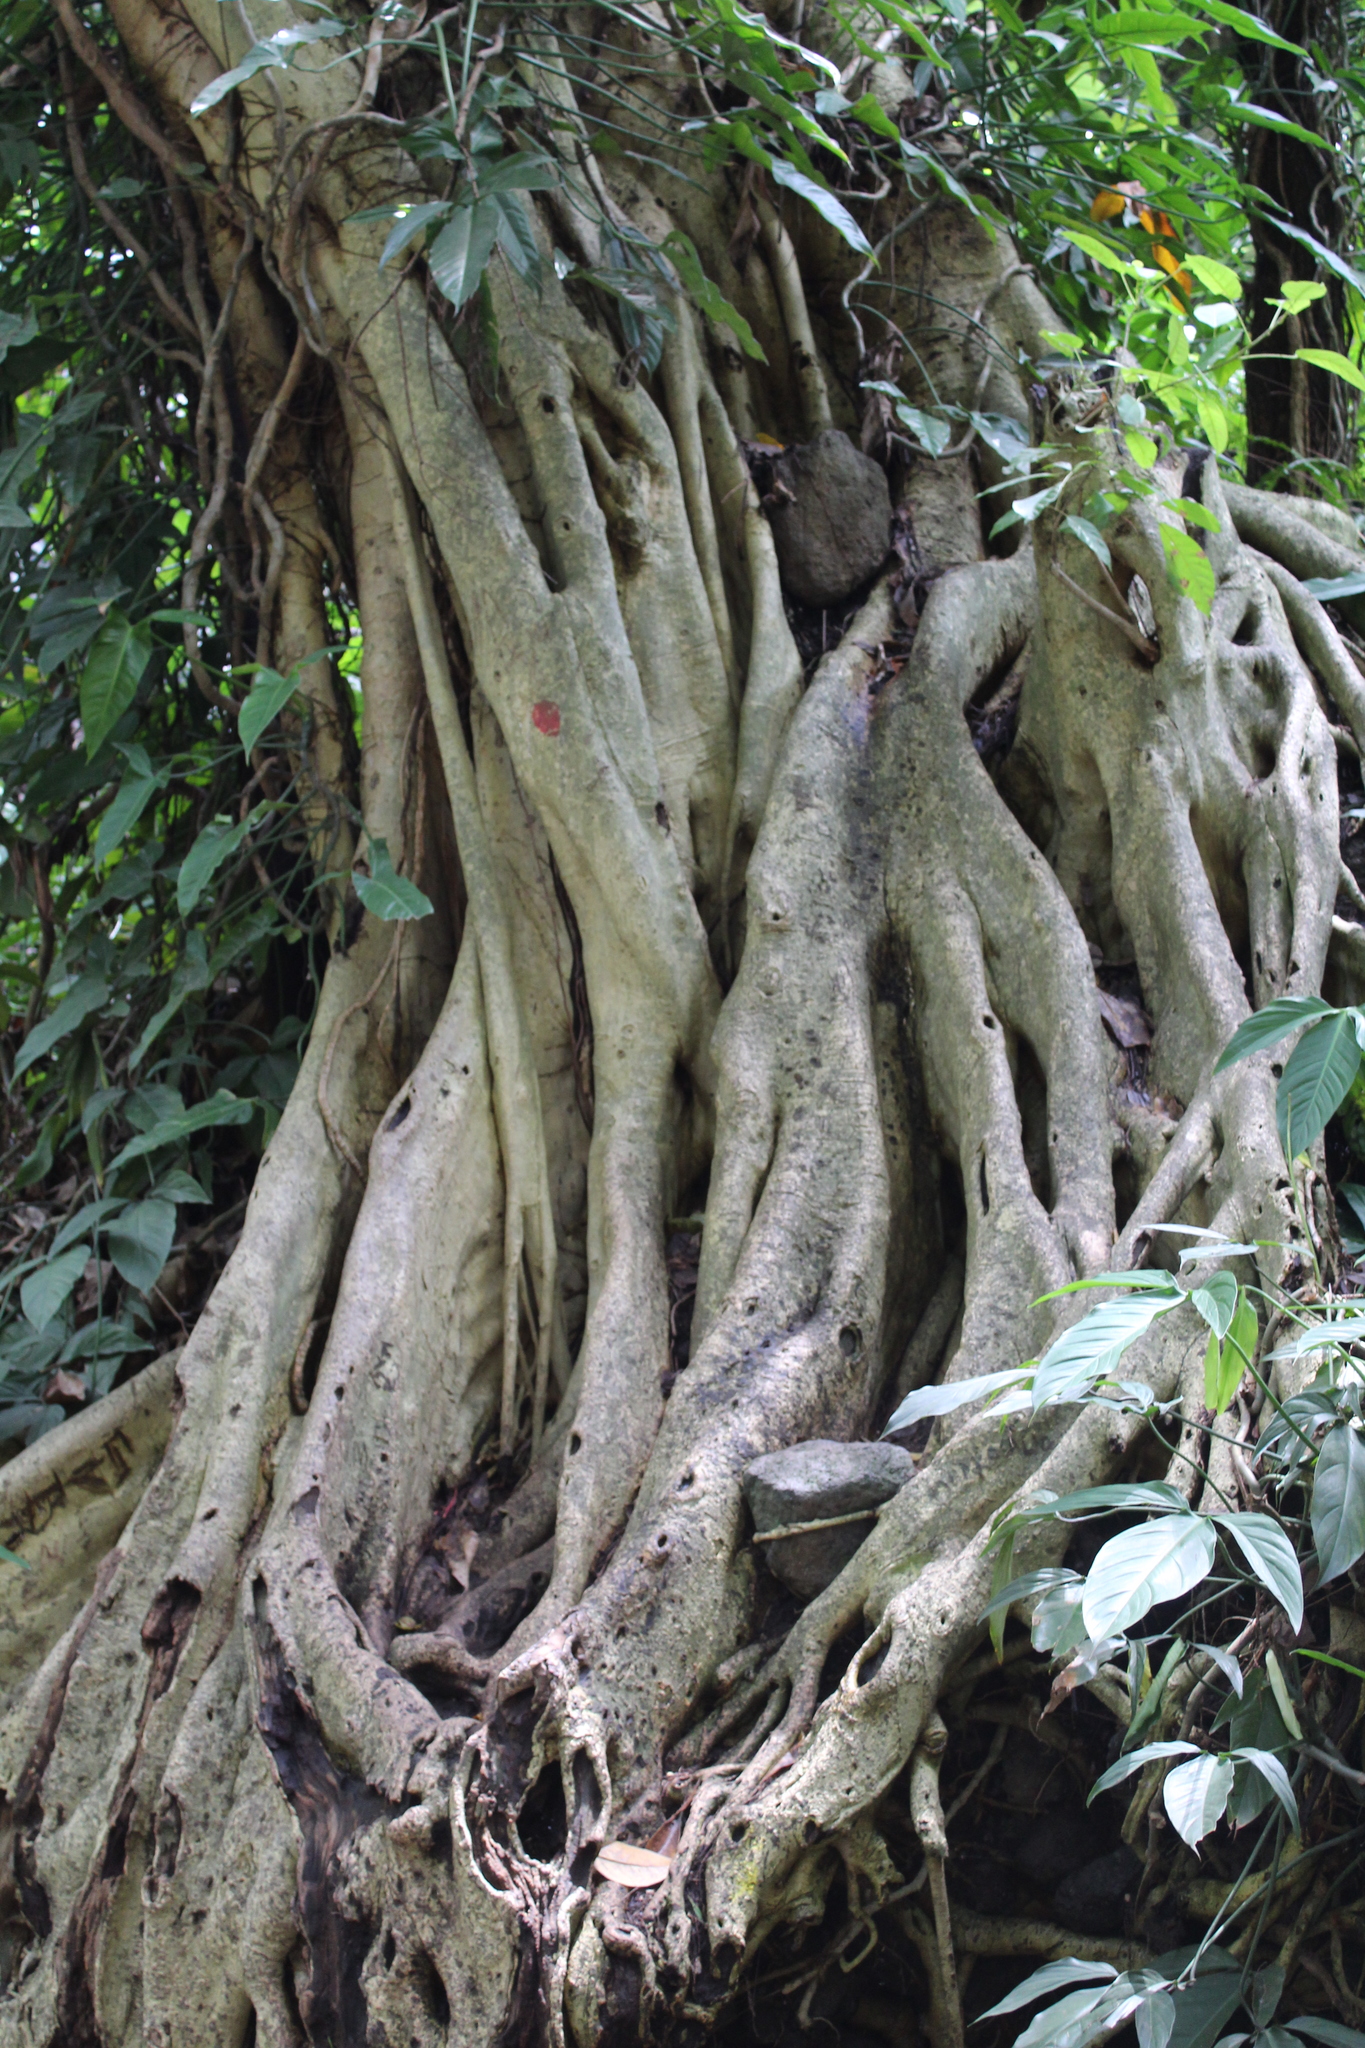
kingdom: Plantae
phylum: Tracheophyta
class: Magnoliopsida
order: Rosales
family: Moraceae
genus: Ficus
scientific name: Ficus petiolaris
